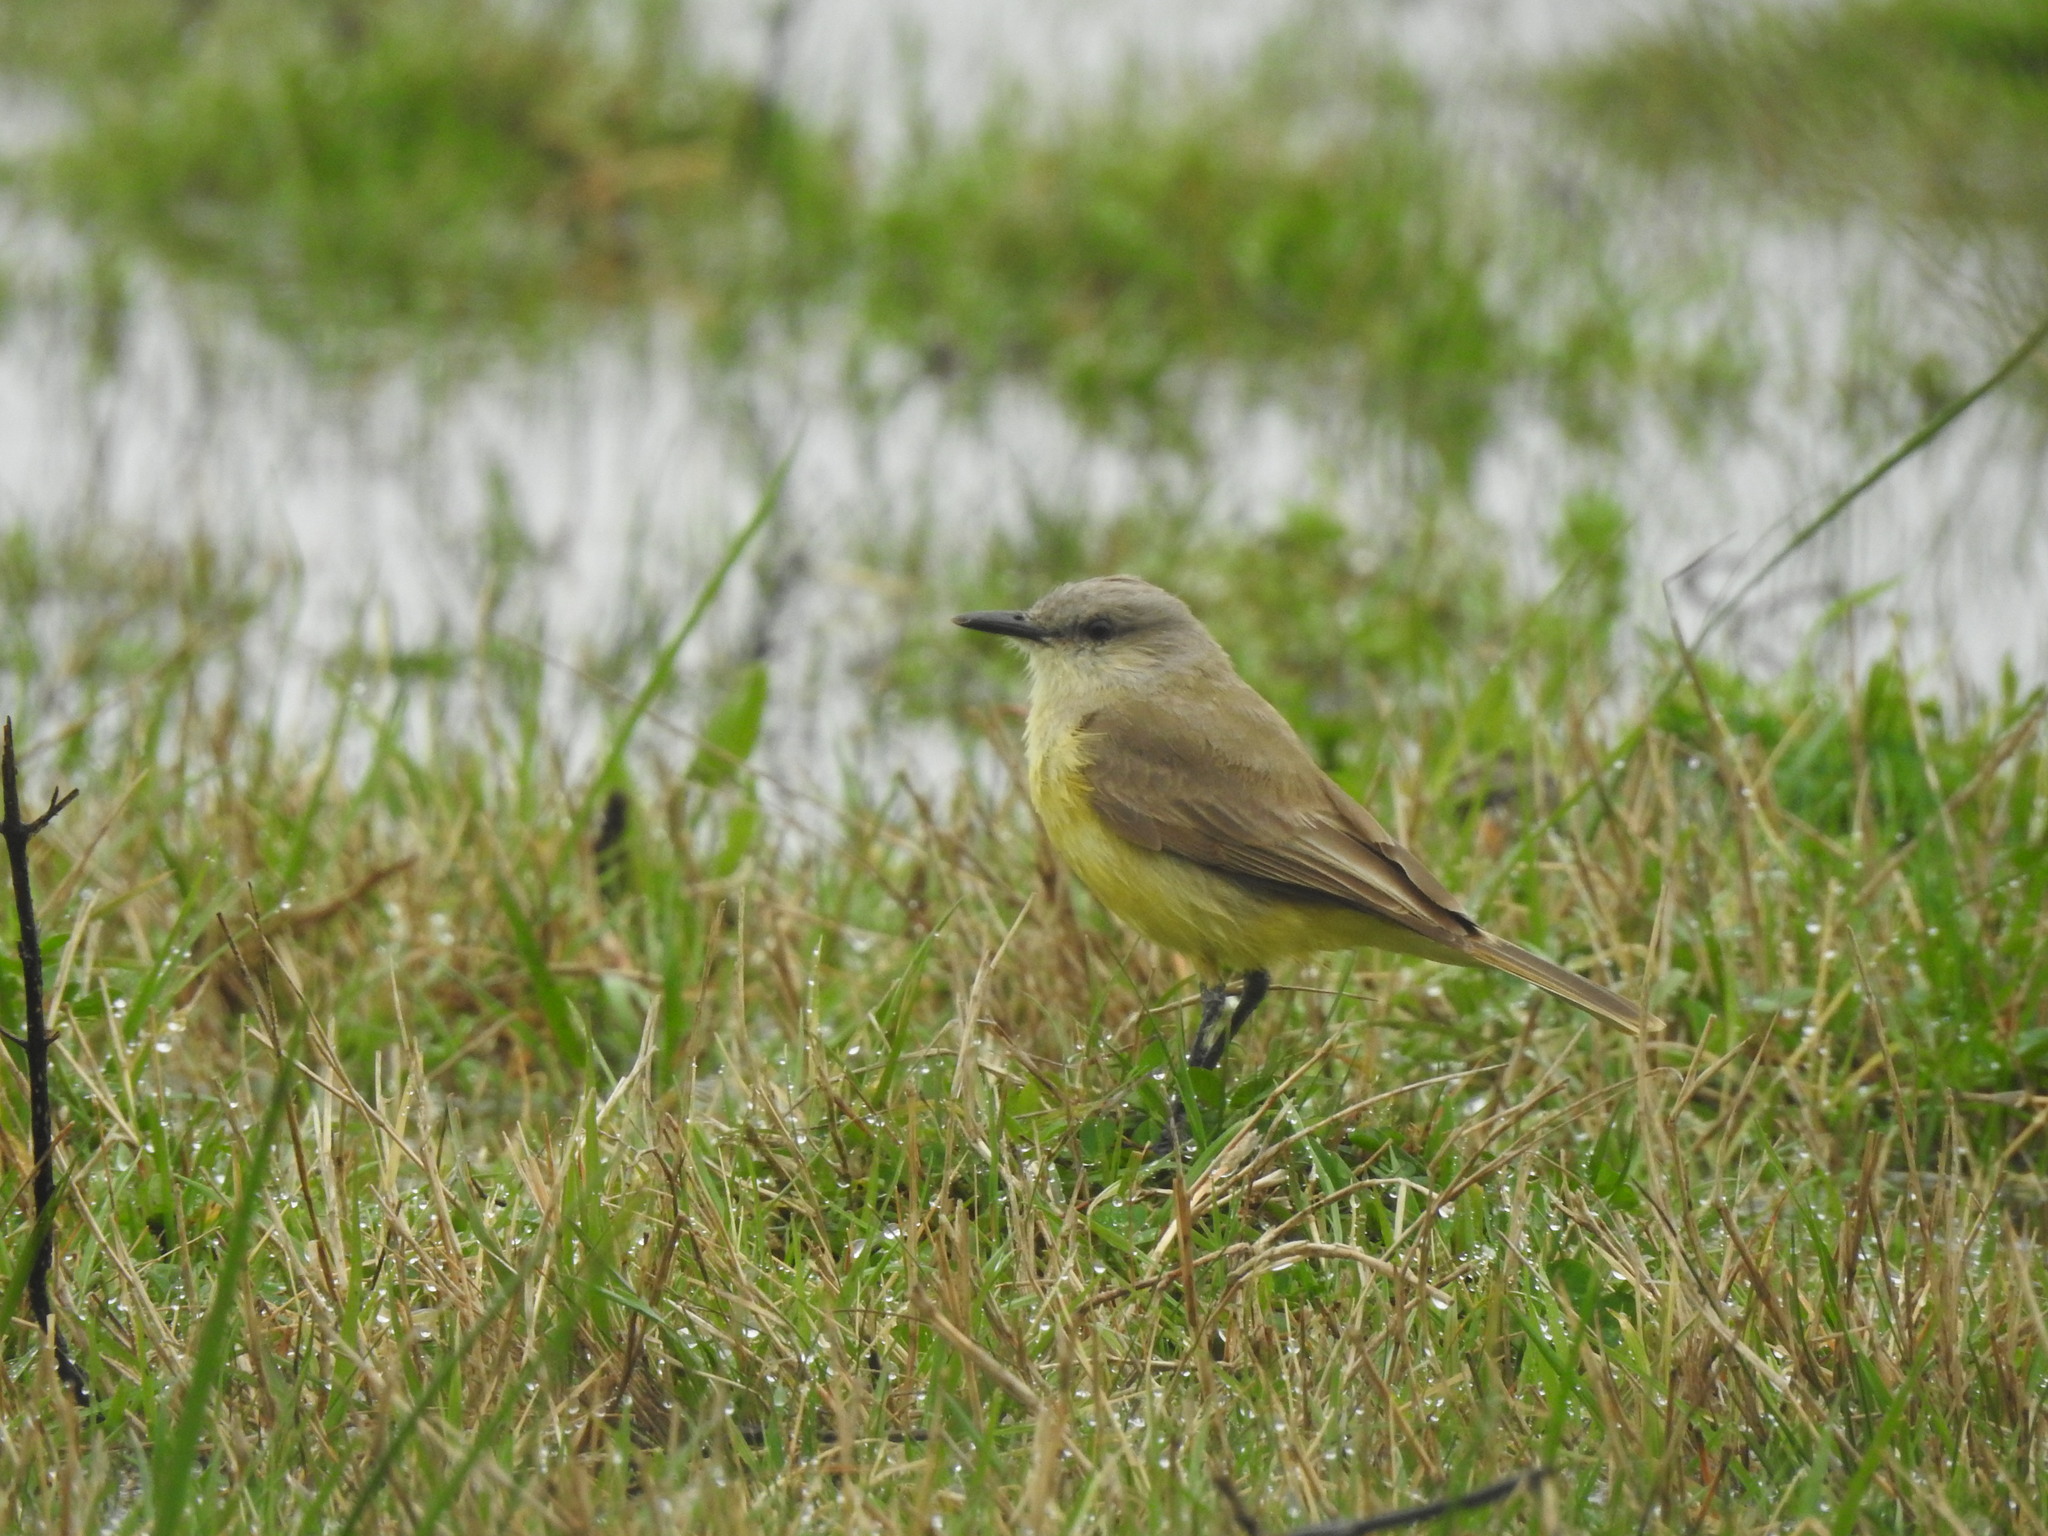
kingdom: Animalia
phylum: Chordata
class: Aves
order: Passeriformes
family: Tyrannidae
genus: Machetornis
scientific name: Machetornis rixosa
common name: Cattle tyrant
